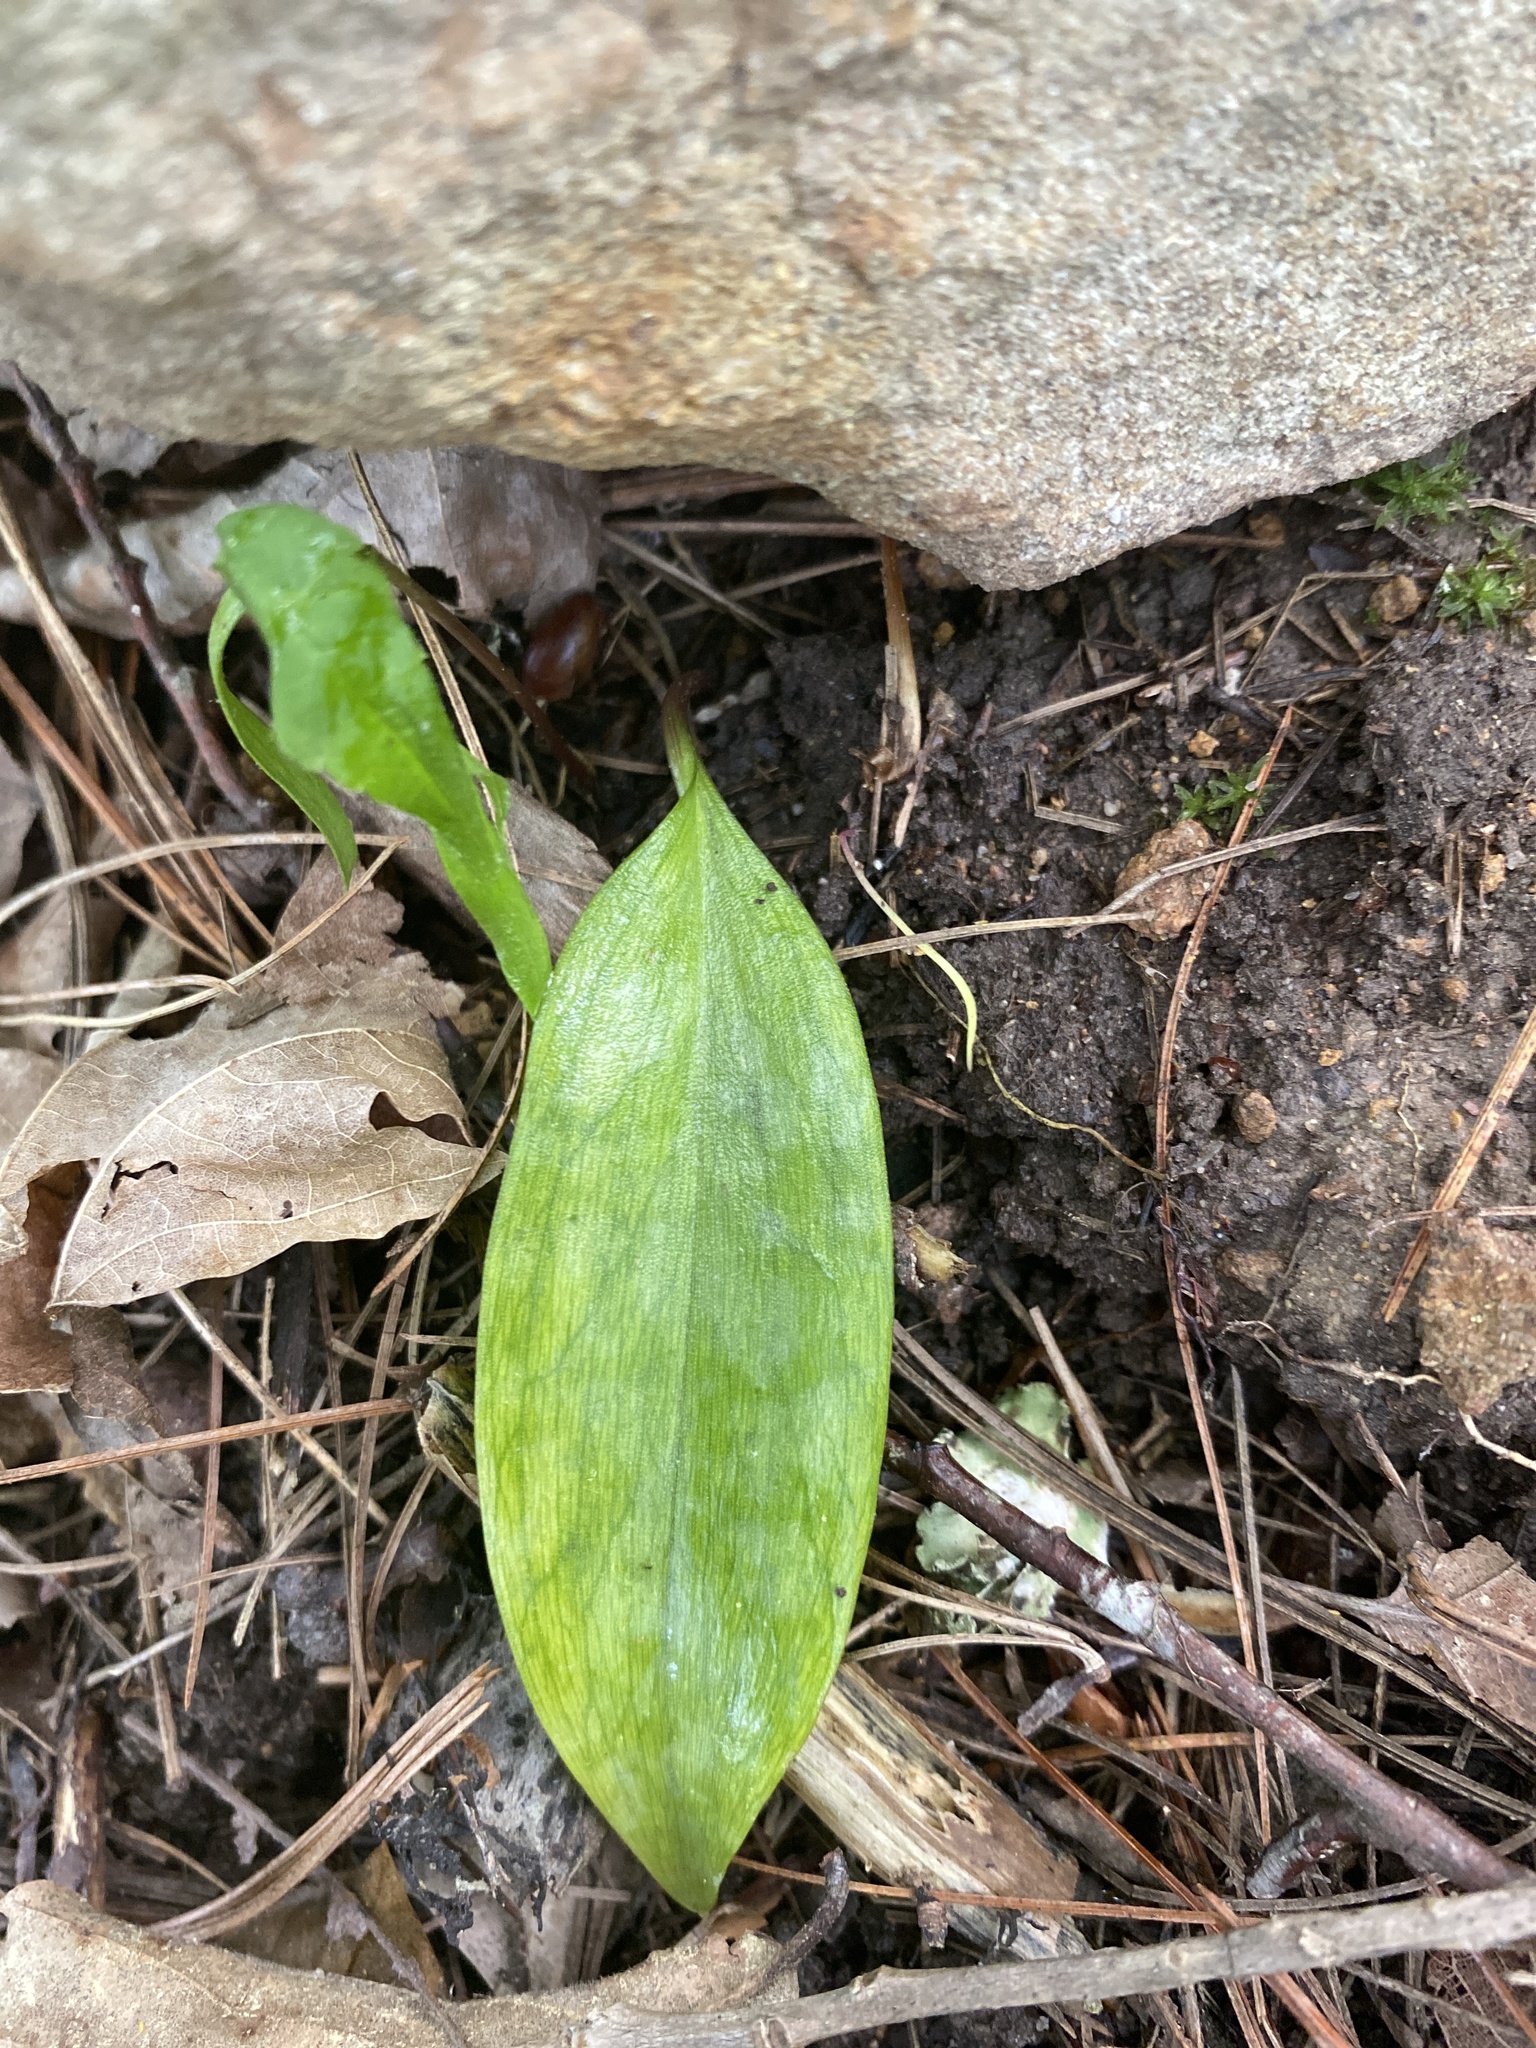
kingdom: Plantae
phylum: Tracheophyta
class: Liliopsida
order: Liliales
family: Liliaceae
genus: Erythronium
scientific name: Erythronium umbilicatum
